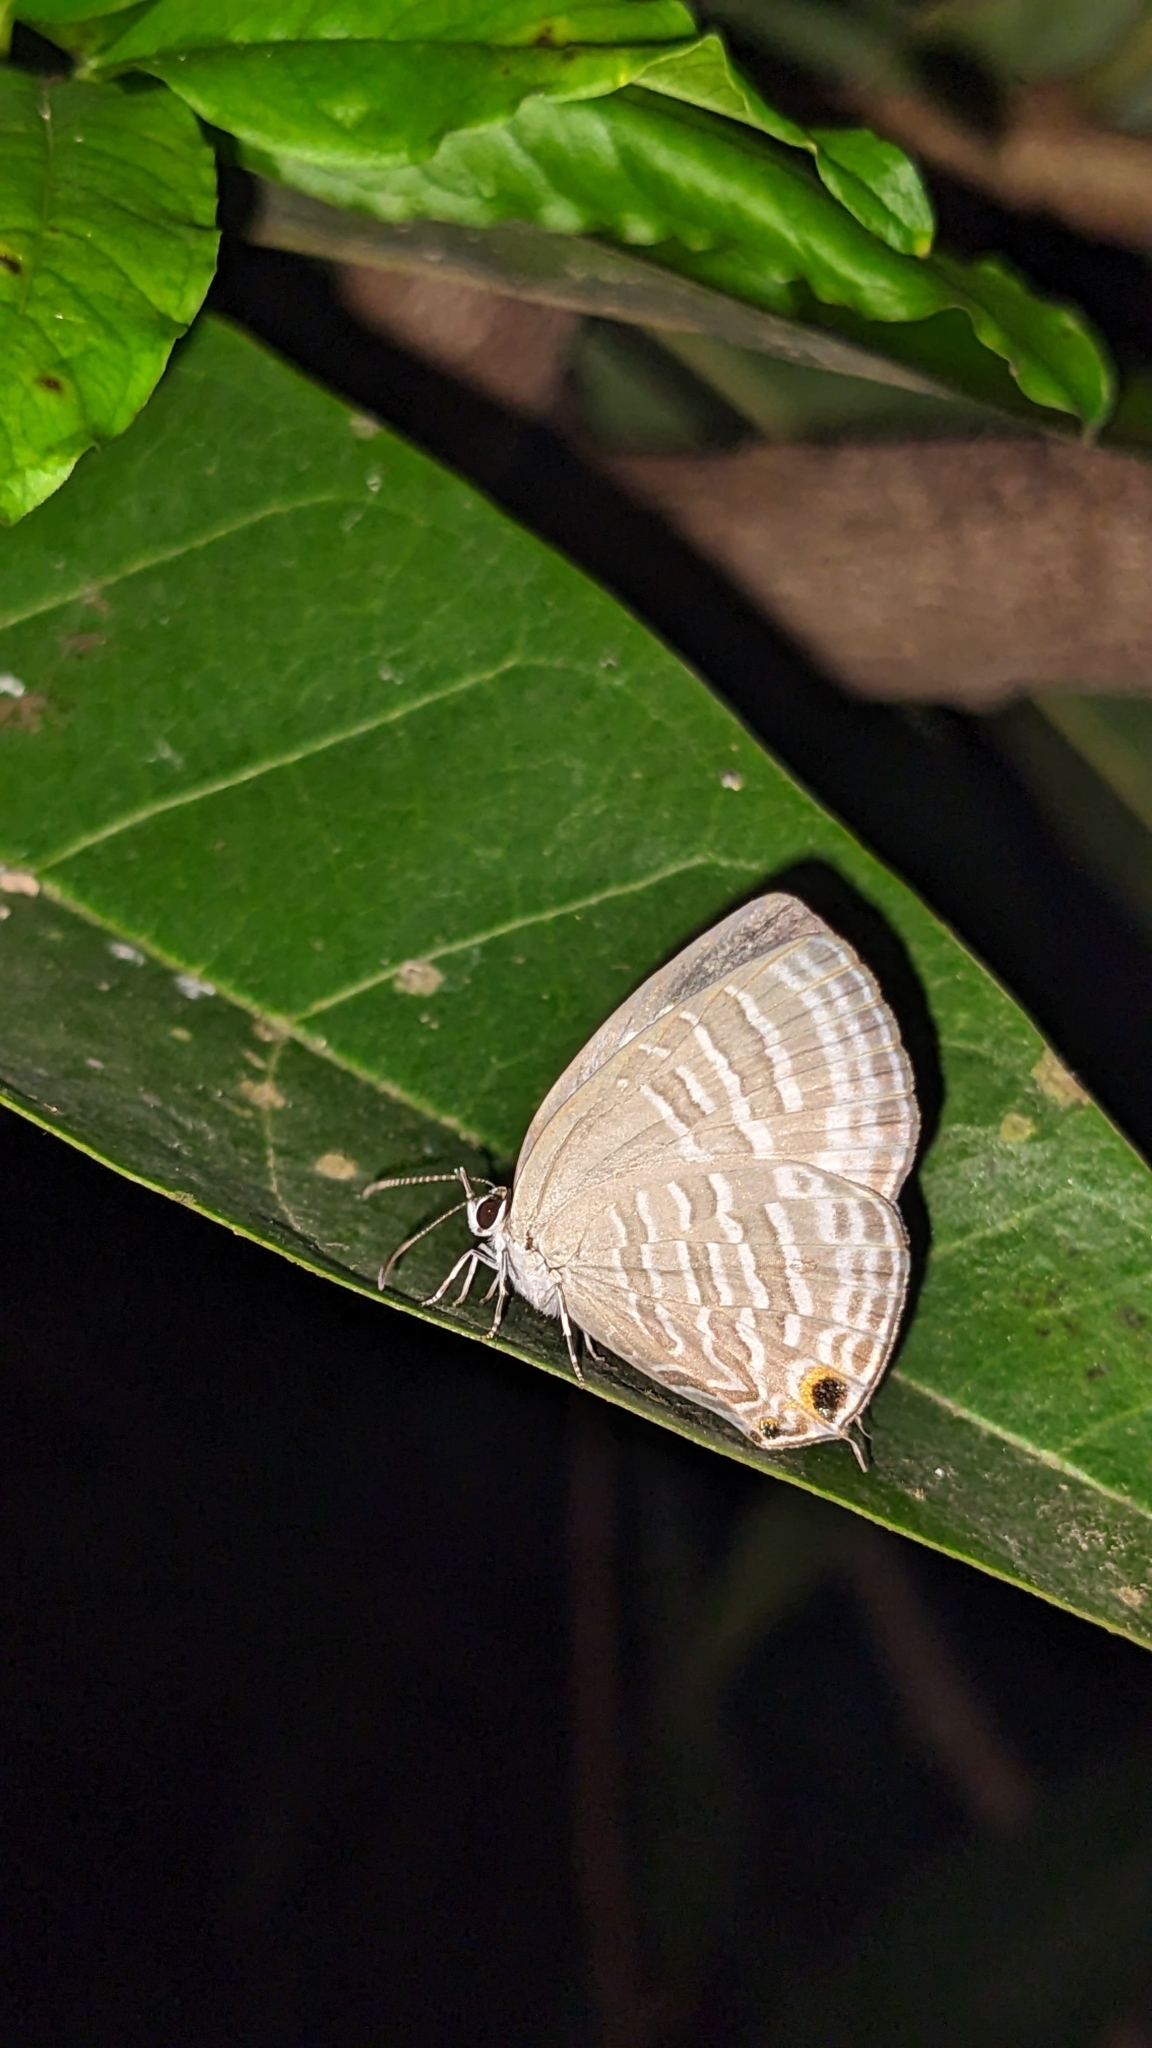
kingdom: Animalia
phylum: Arthropoda
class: Insecta
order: Lepidoptera
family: Lycaenidae
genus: Jamides
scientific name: Jamides celeno
